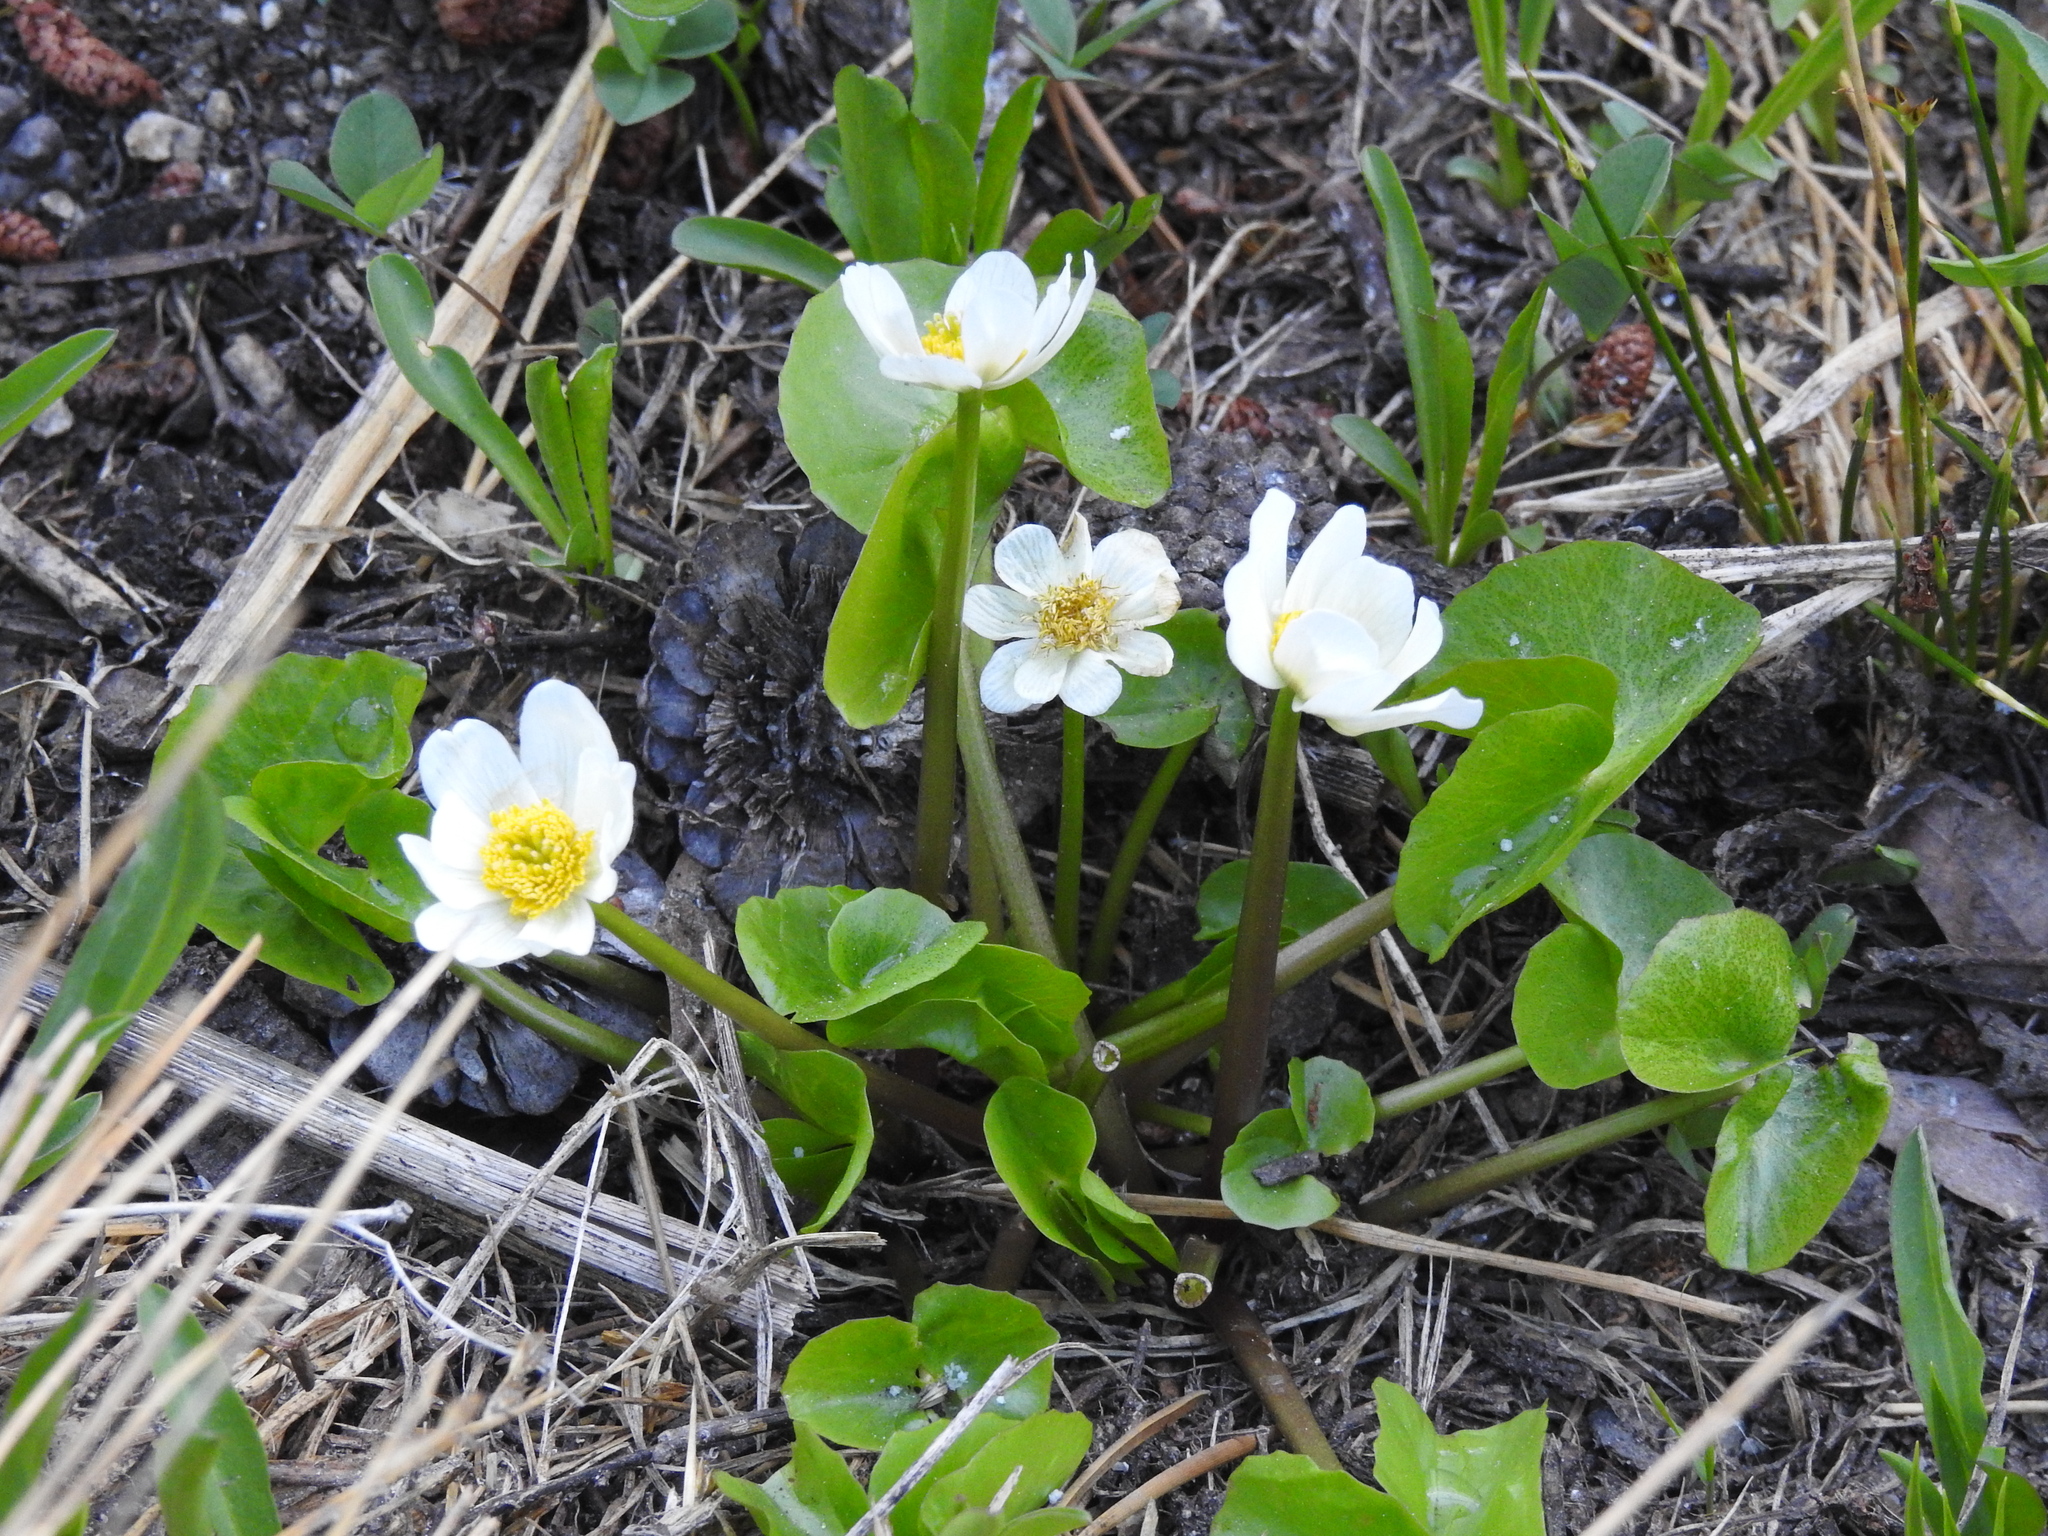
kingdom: Plantae
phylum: Tracheophyta
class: Magnoliopsida
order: Ranunculales
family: Ranunculaceae
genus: Caltha
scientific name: Caltha leptosepala
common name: Elkslip
